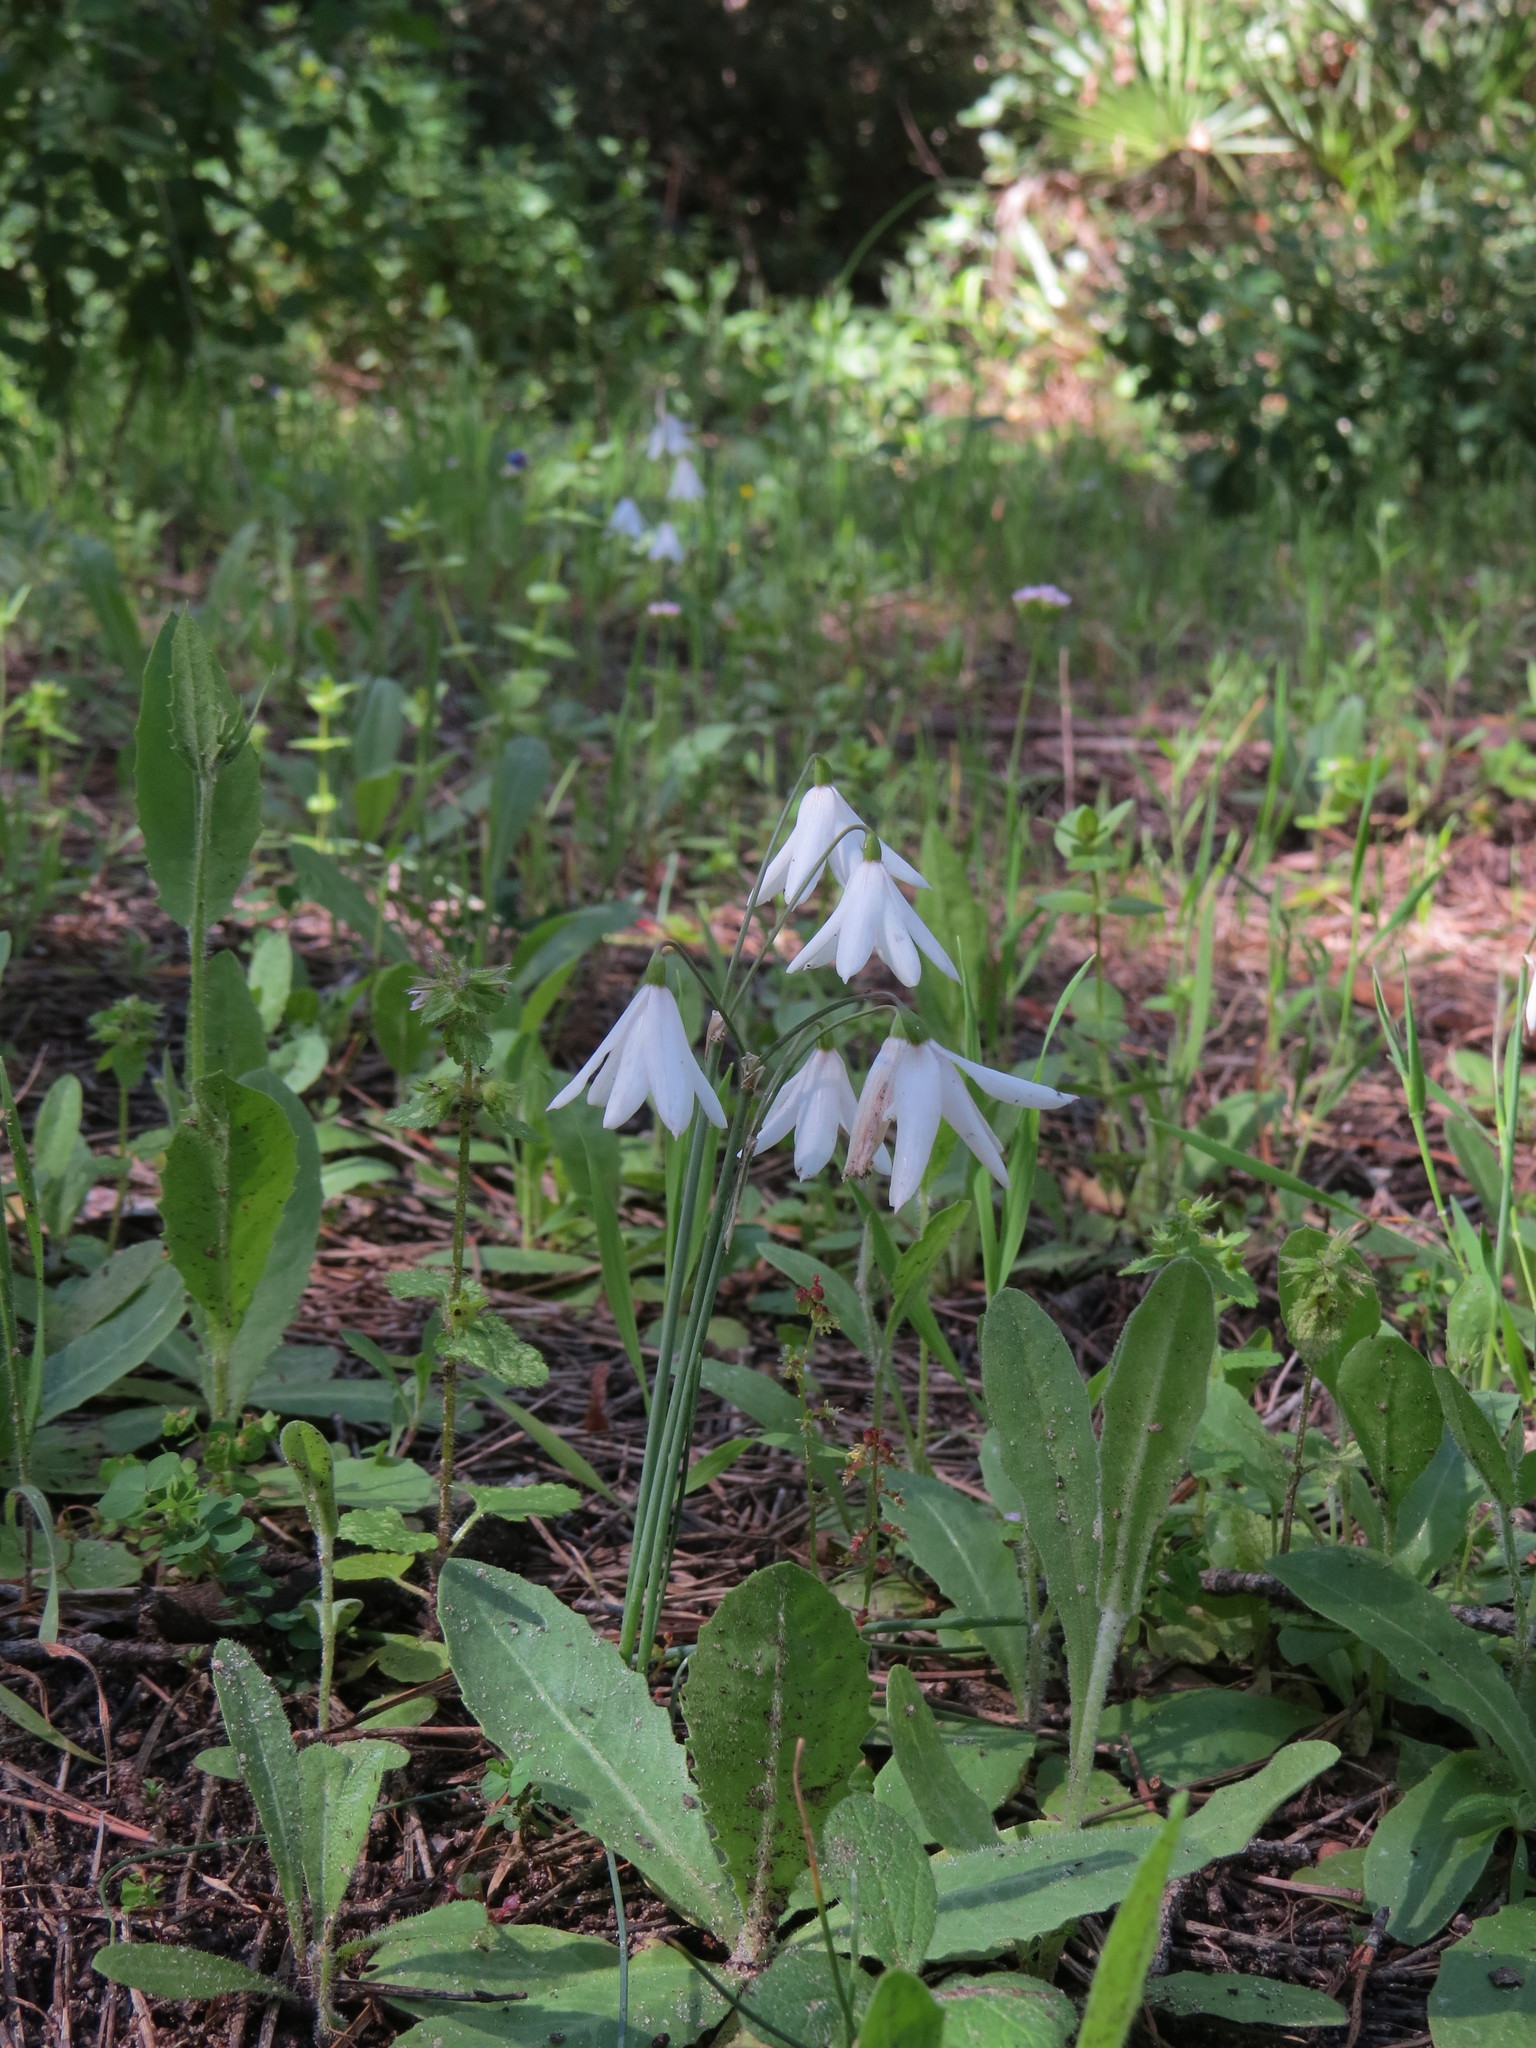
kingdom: Plantae
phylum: Tracheophyta
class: Liliopsida
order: Asparagales
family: Amaryllidaceae
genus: Acis
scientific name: Acis trichophylla
